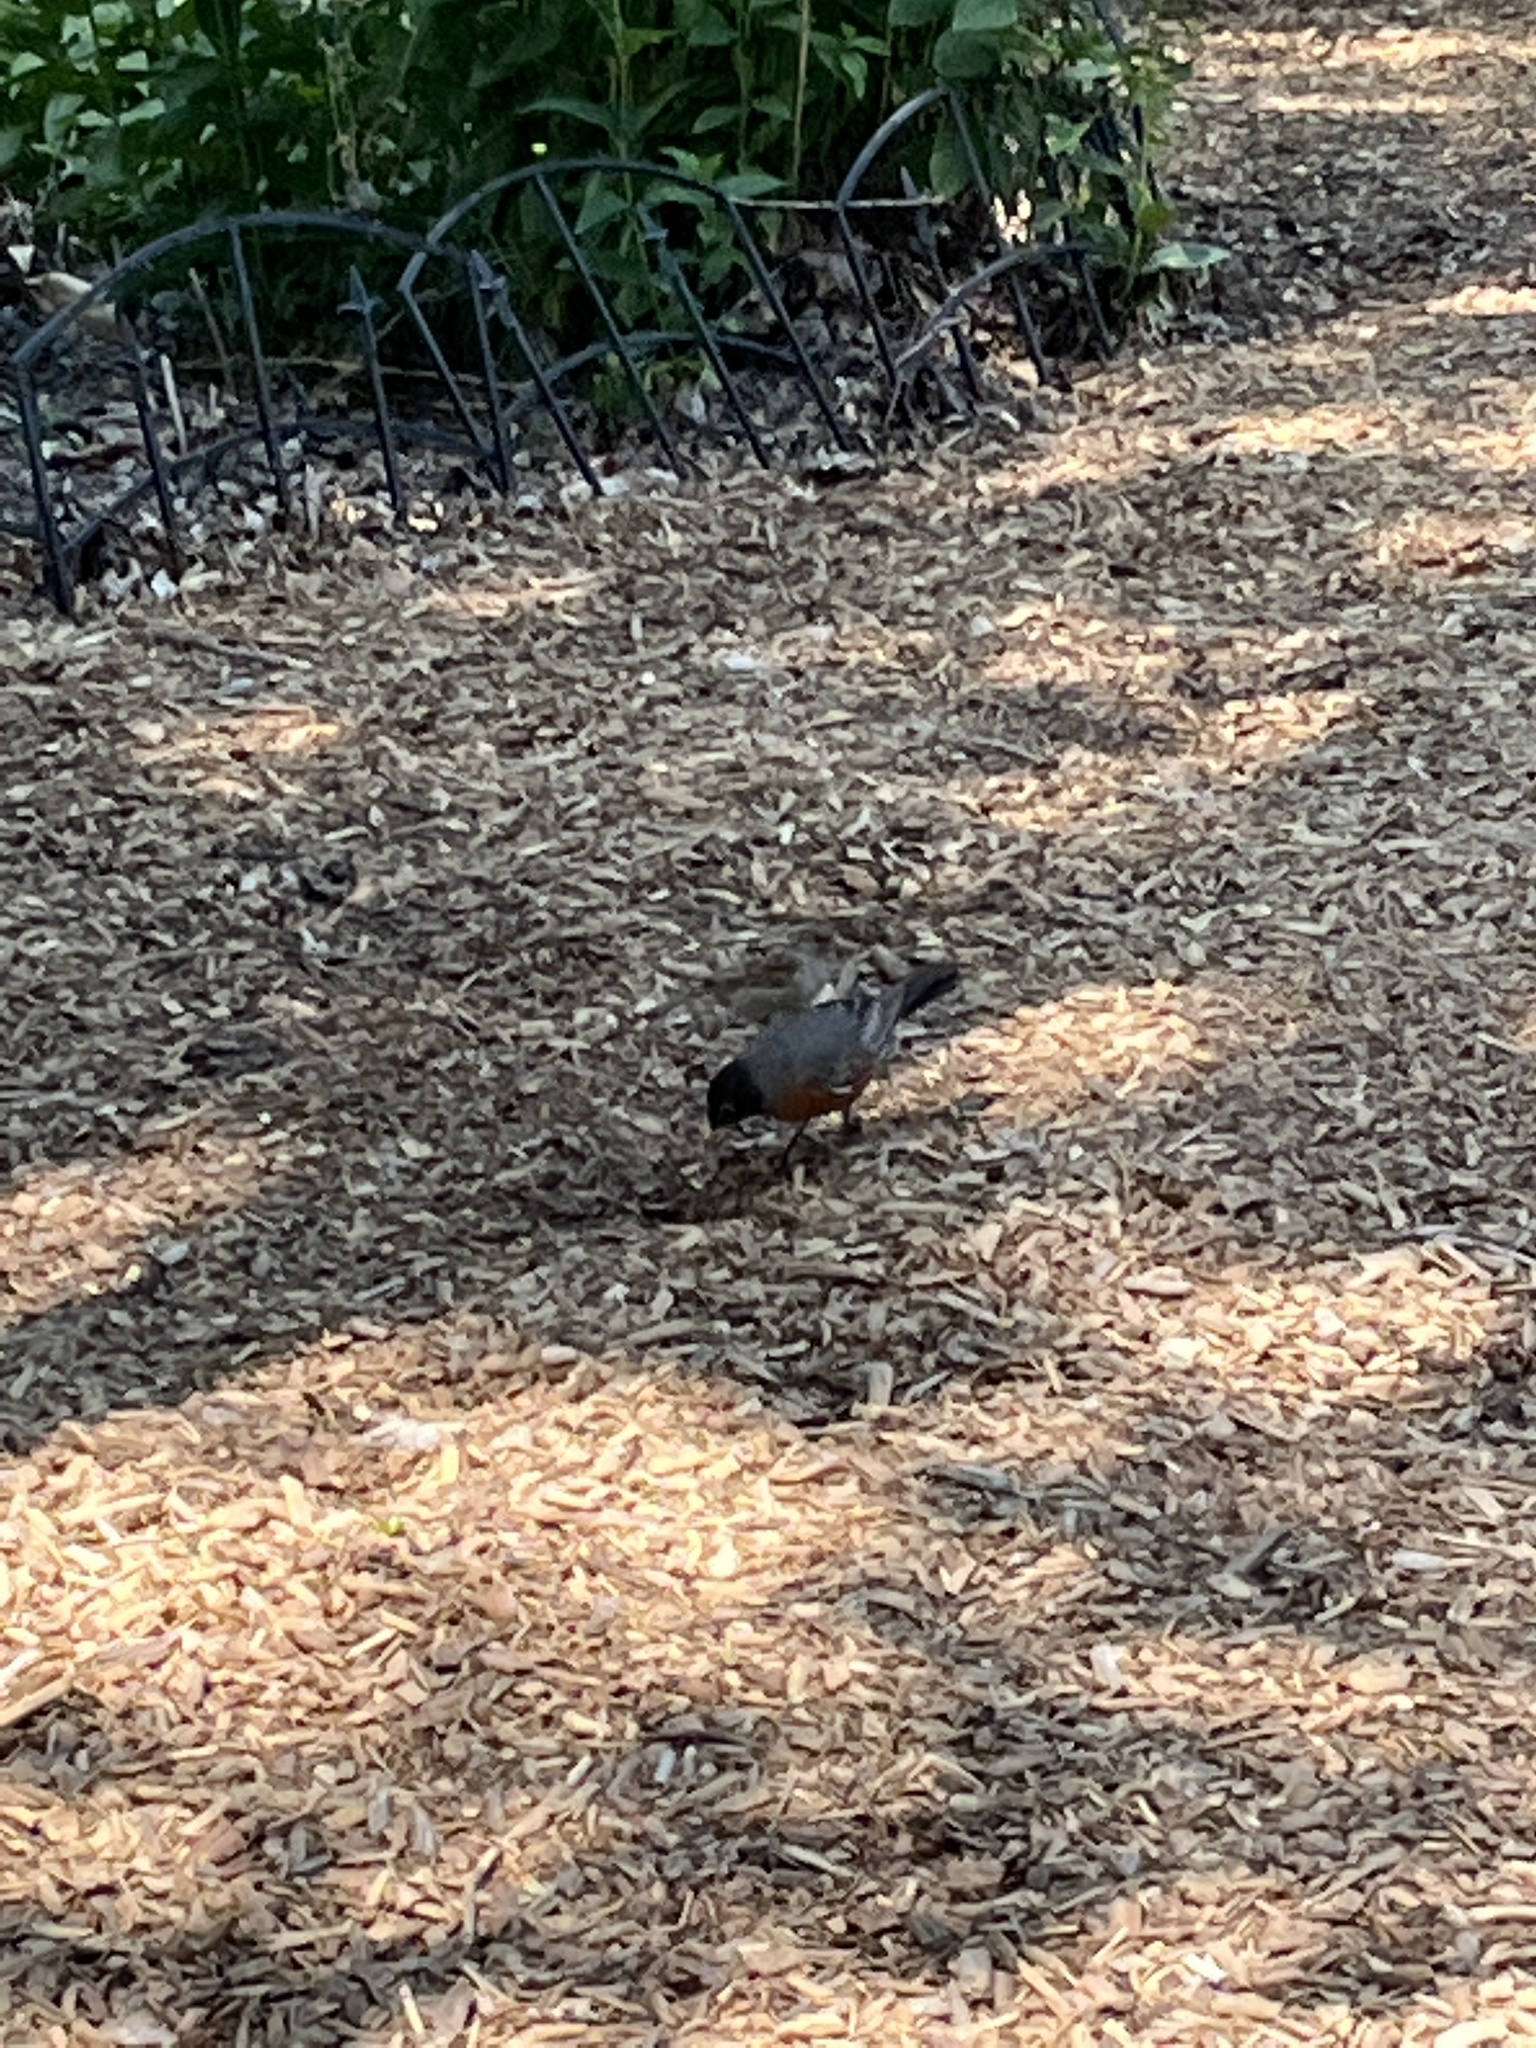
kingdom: Animalia
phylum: Chordata
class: Aves
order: Passeriformes
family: Turdidae
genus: Turdus
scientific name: Turdus migratorius
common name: American robin
